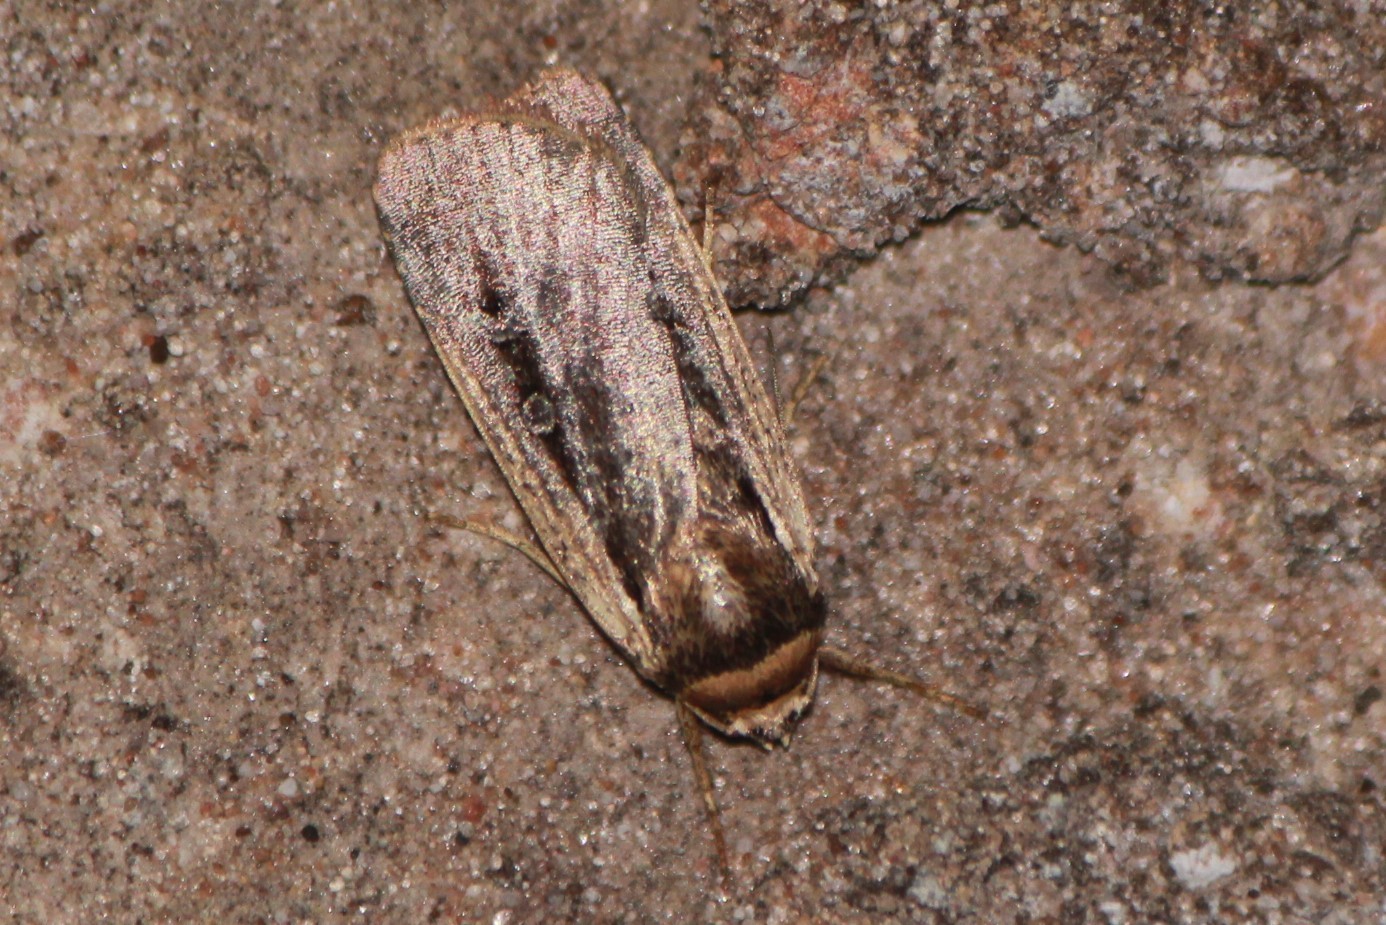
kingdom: Animalia
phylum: Arthropoda
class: Insecta
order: Lepidoptera
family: Noctuidae
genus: Ochropleura
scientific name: Ochropleura implecta
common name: Flame-shouldered dart
